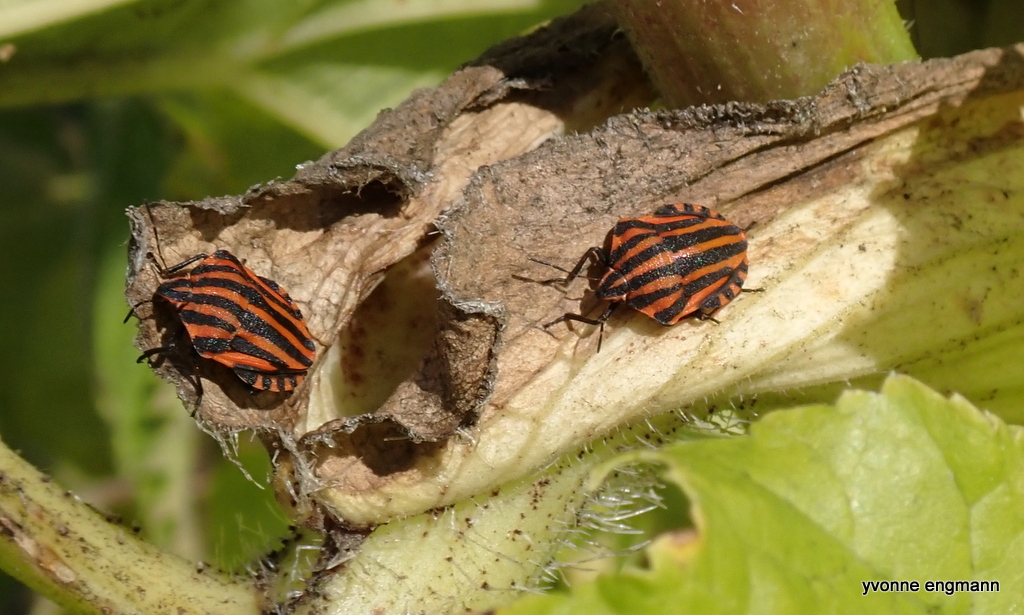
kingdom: Animalia
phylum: Arthropoda
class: Insecta
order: Hemiptera
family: Pentatomidae
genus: Graphosoma
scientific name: Graphosoma italicum
